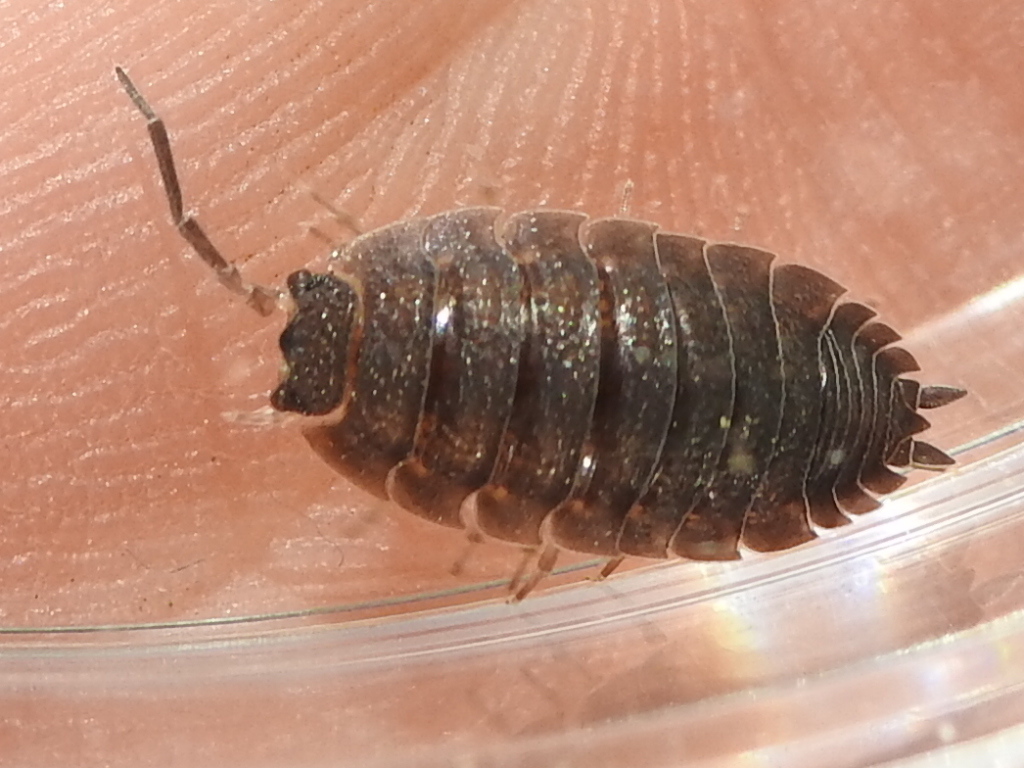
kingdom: Animalia
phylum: Arthropoda
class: Malacostraca
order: Isopoda
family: Porcellionidae
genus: Porcellio
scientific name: Porcellio scaber
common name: Common rough woodlouse
